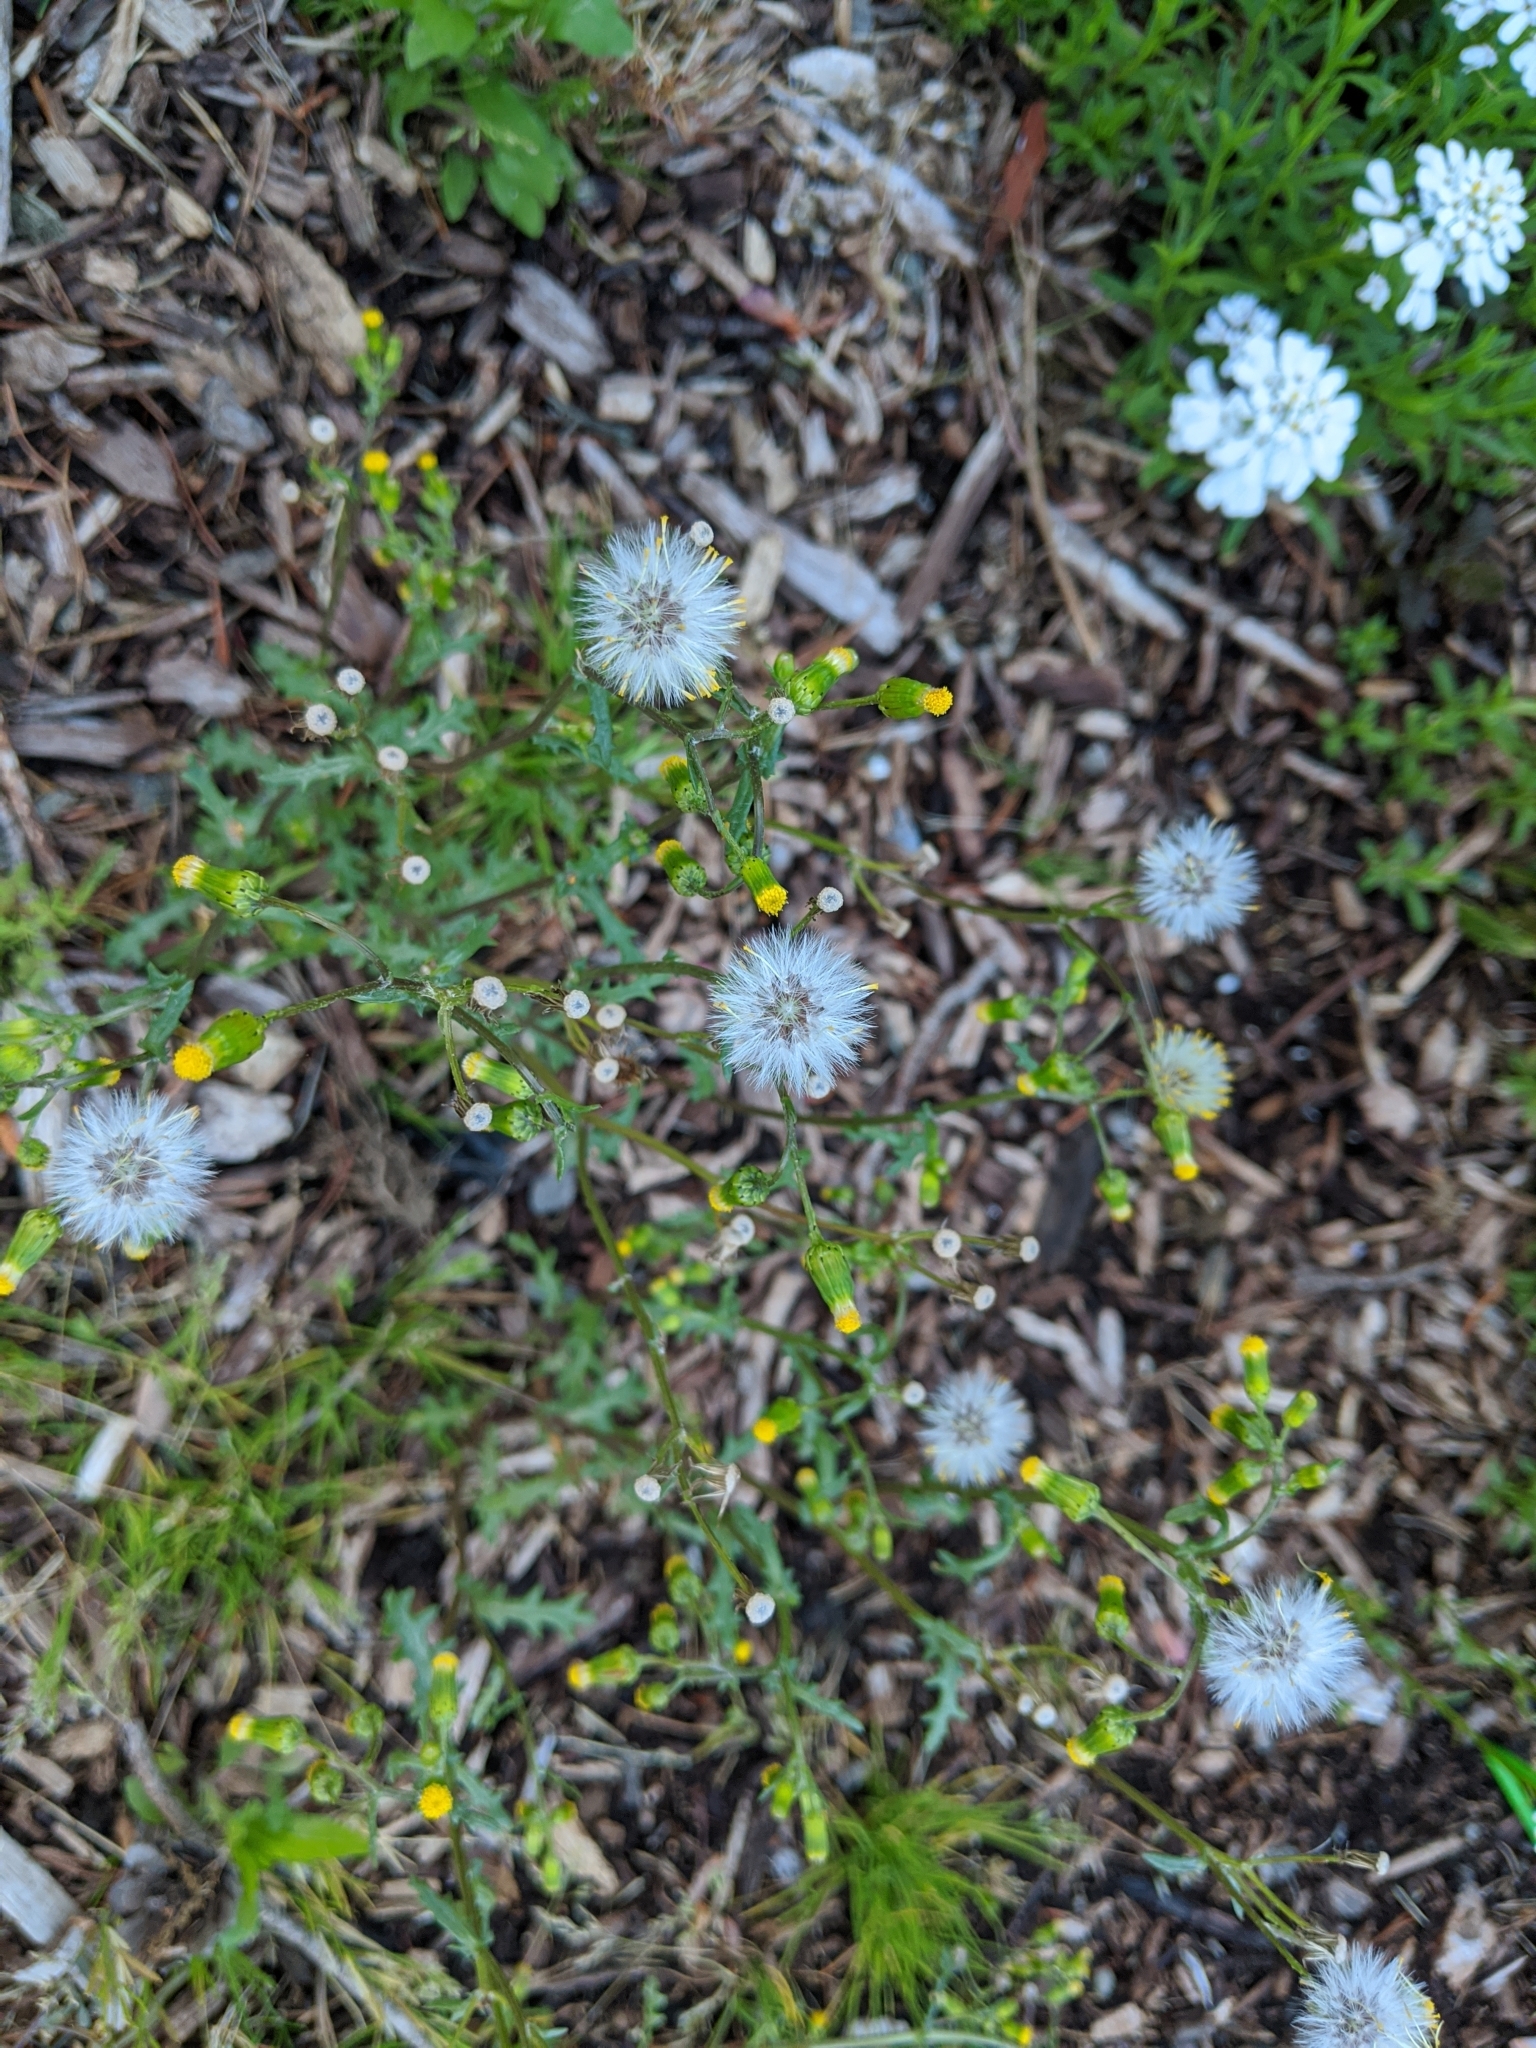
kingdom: Plantae
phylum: Tracheophyta
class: Magnoliopsida
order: Asterales
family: Asteraceae
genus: Senecio
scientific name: Senecio vulgaris
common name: Old-man-in-the-spring
